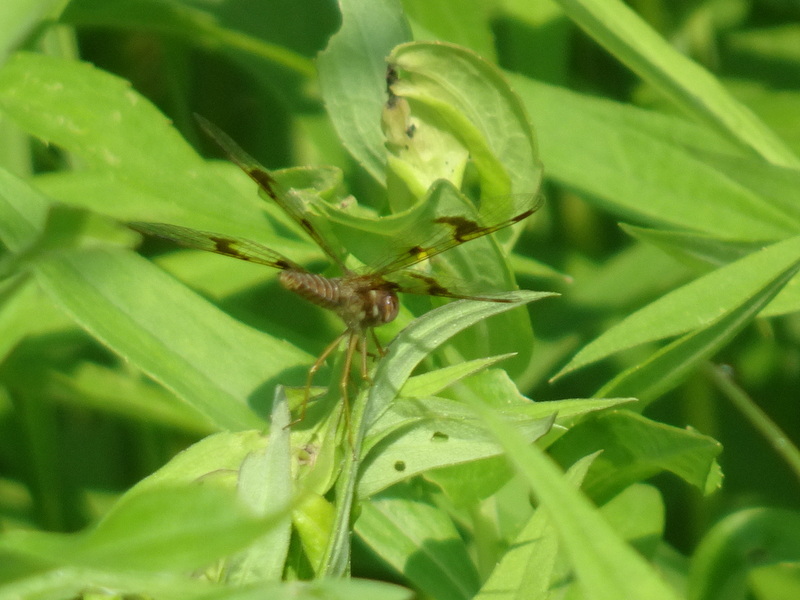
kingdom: Animalia
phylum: Arthropoda
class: Insecta
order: Odonata
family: Libellulidae
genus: Perithemis
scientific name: Perithemis tenera
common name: Eastern amberwing
